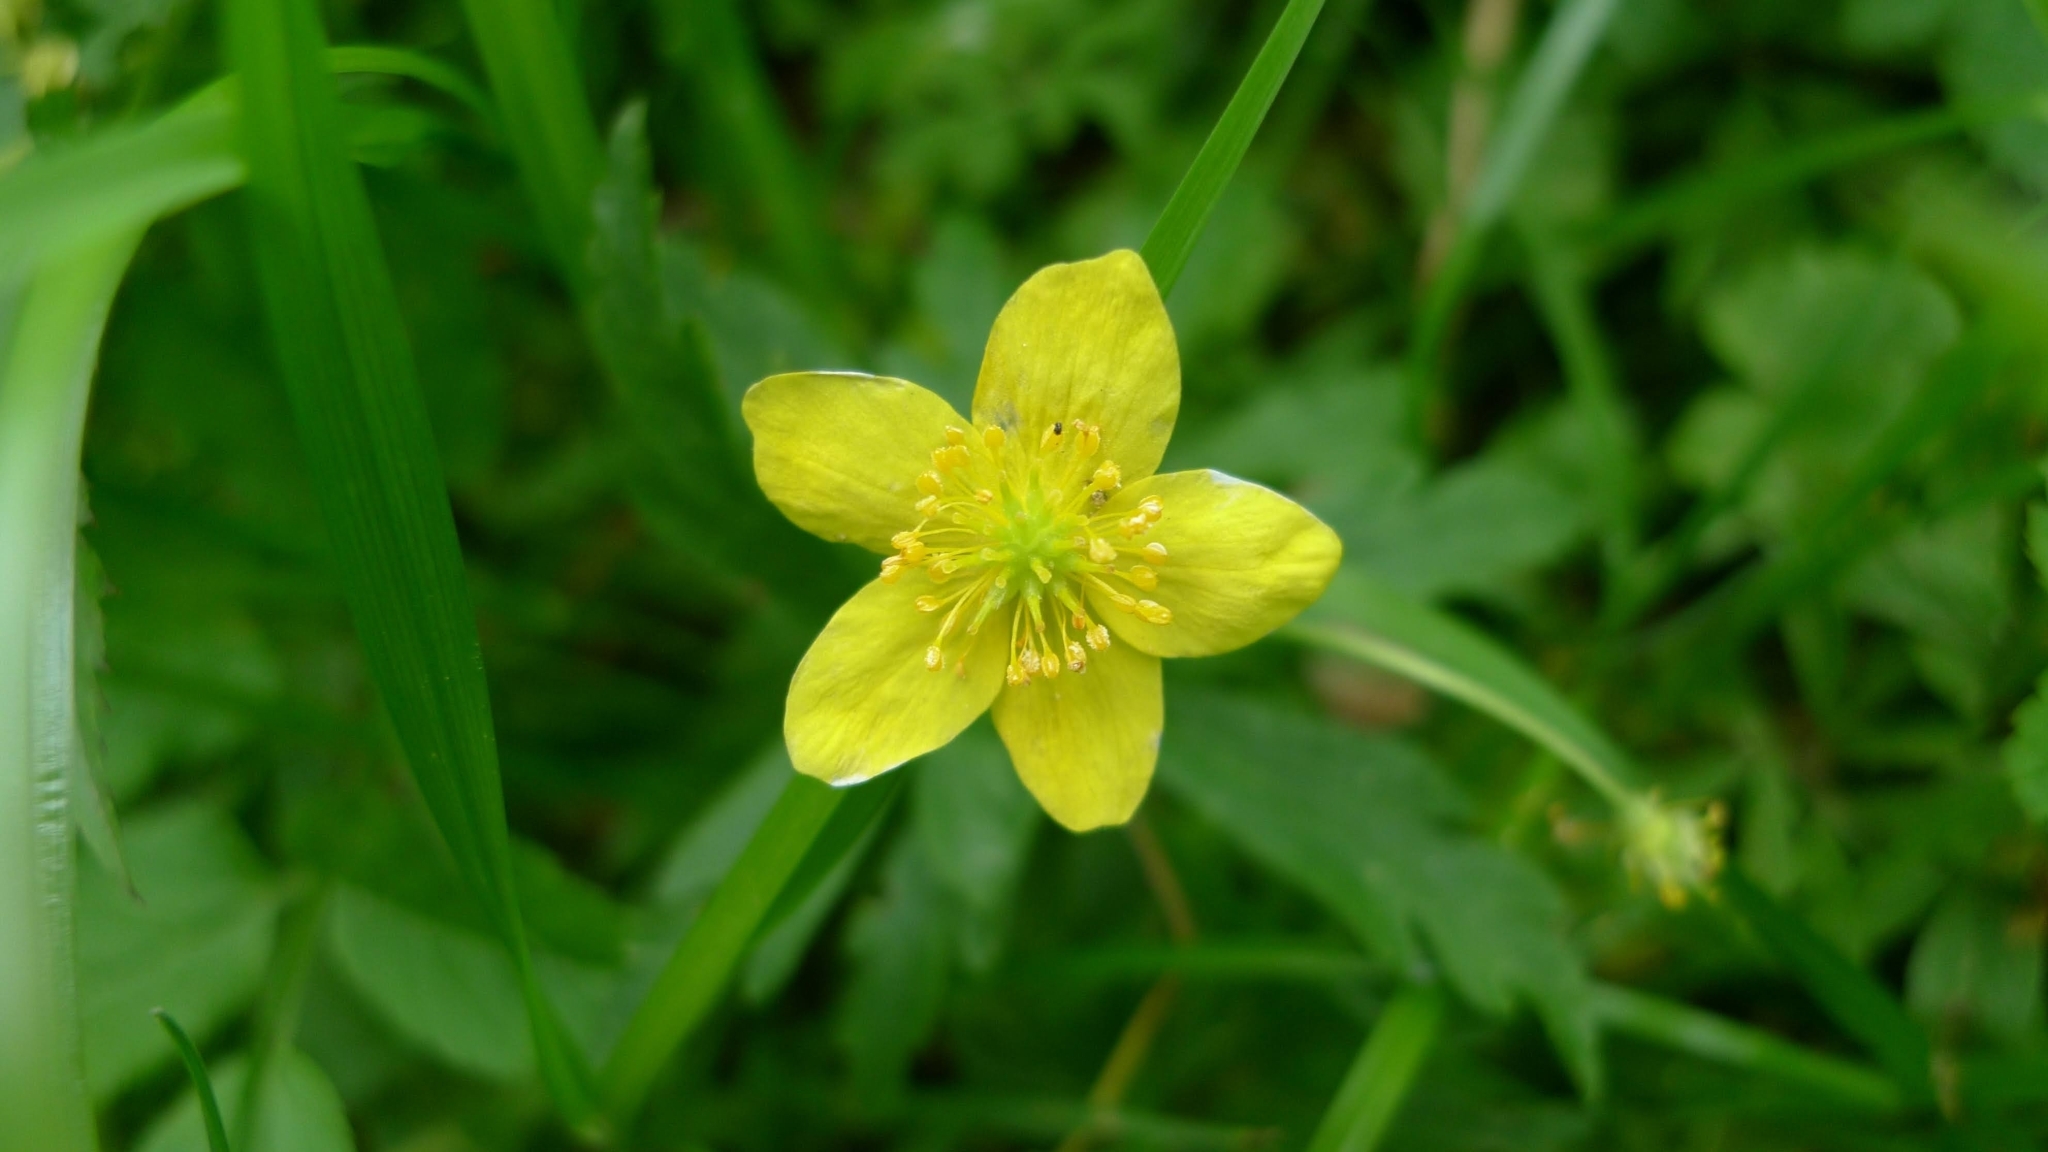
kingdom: Plantae
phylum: Tracheophyta
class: Magnoliopsida
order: Ranunculales
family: Ranunculaceae
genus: Anemone
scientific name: Anemone ranunculoides
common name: Yellow anemone
